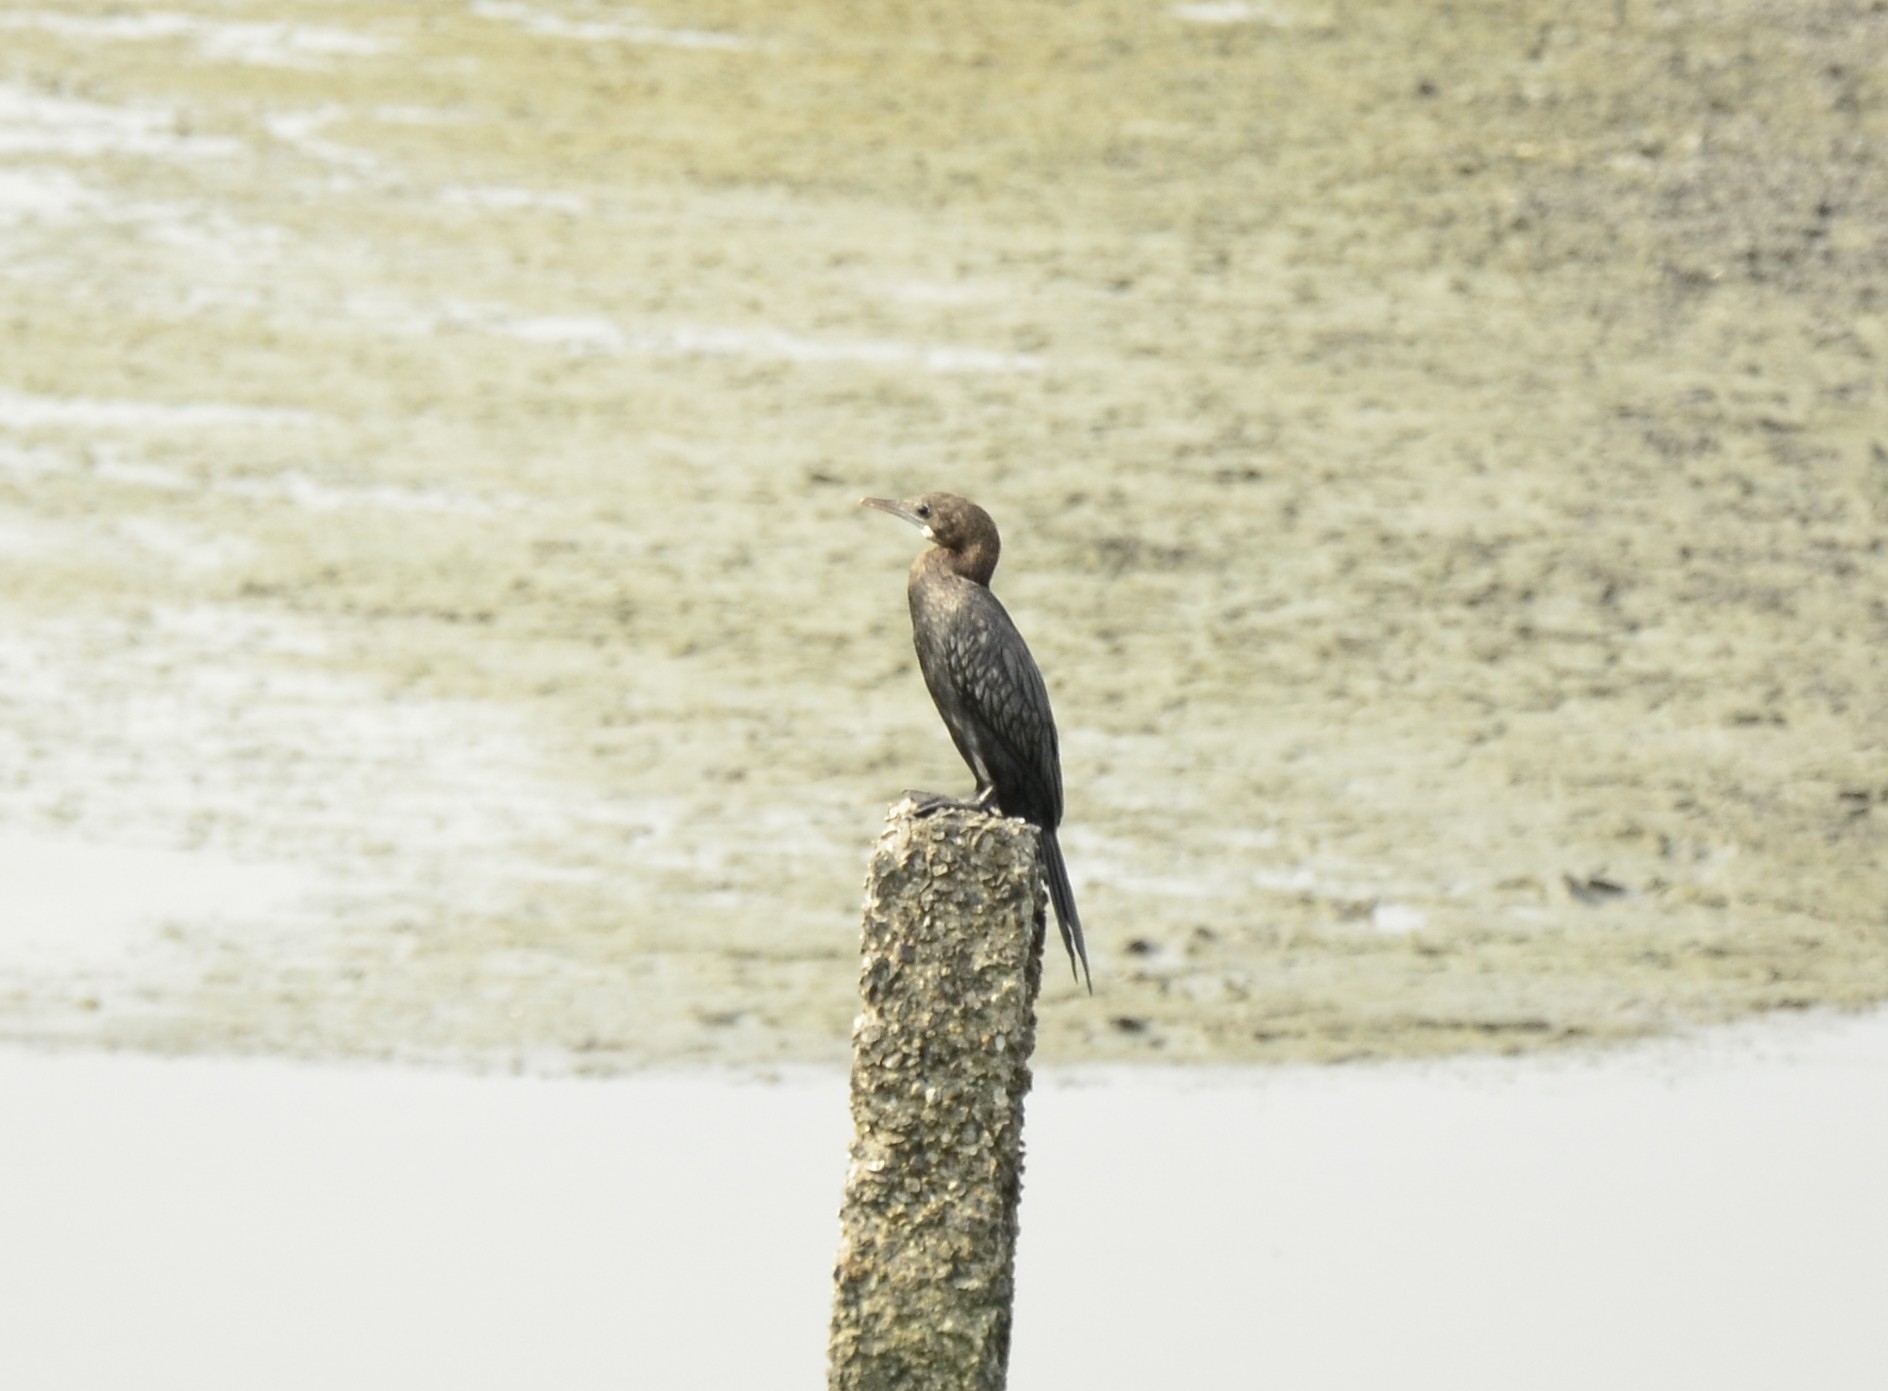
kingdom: Animalia
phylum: Chordata
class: Aves
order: Suliformes
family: Phalacrocoracidae
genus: Microcarbo
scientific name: Microcarbo niger
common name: Little cormorant
